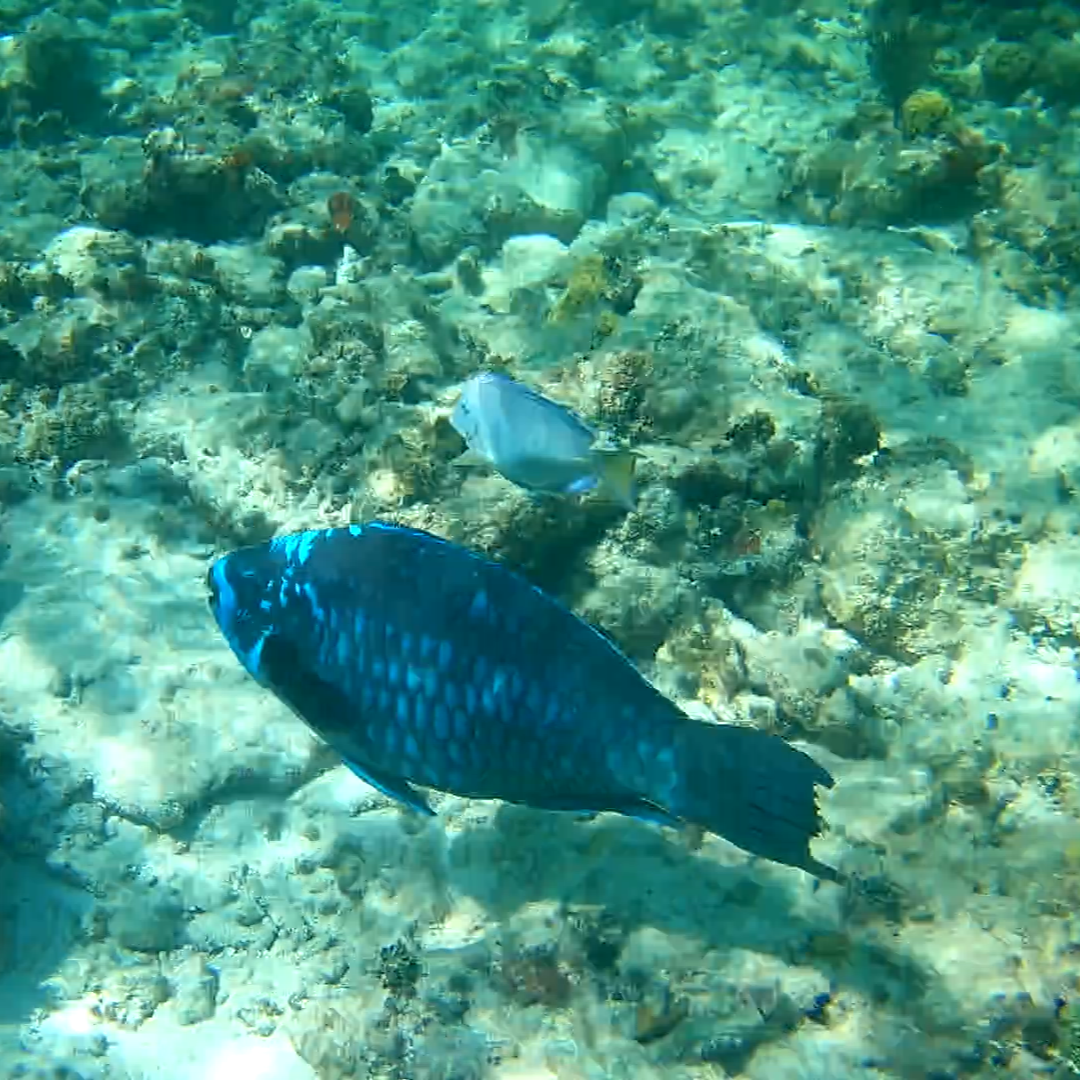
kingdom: Animalia
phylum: Chordata
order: Perciformes
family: Acanthuridae
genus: Acanthurus
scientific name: Acanthurus coeruleus
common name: Blue tang
